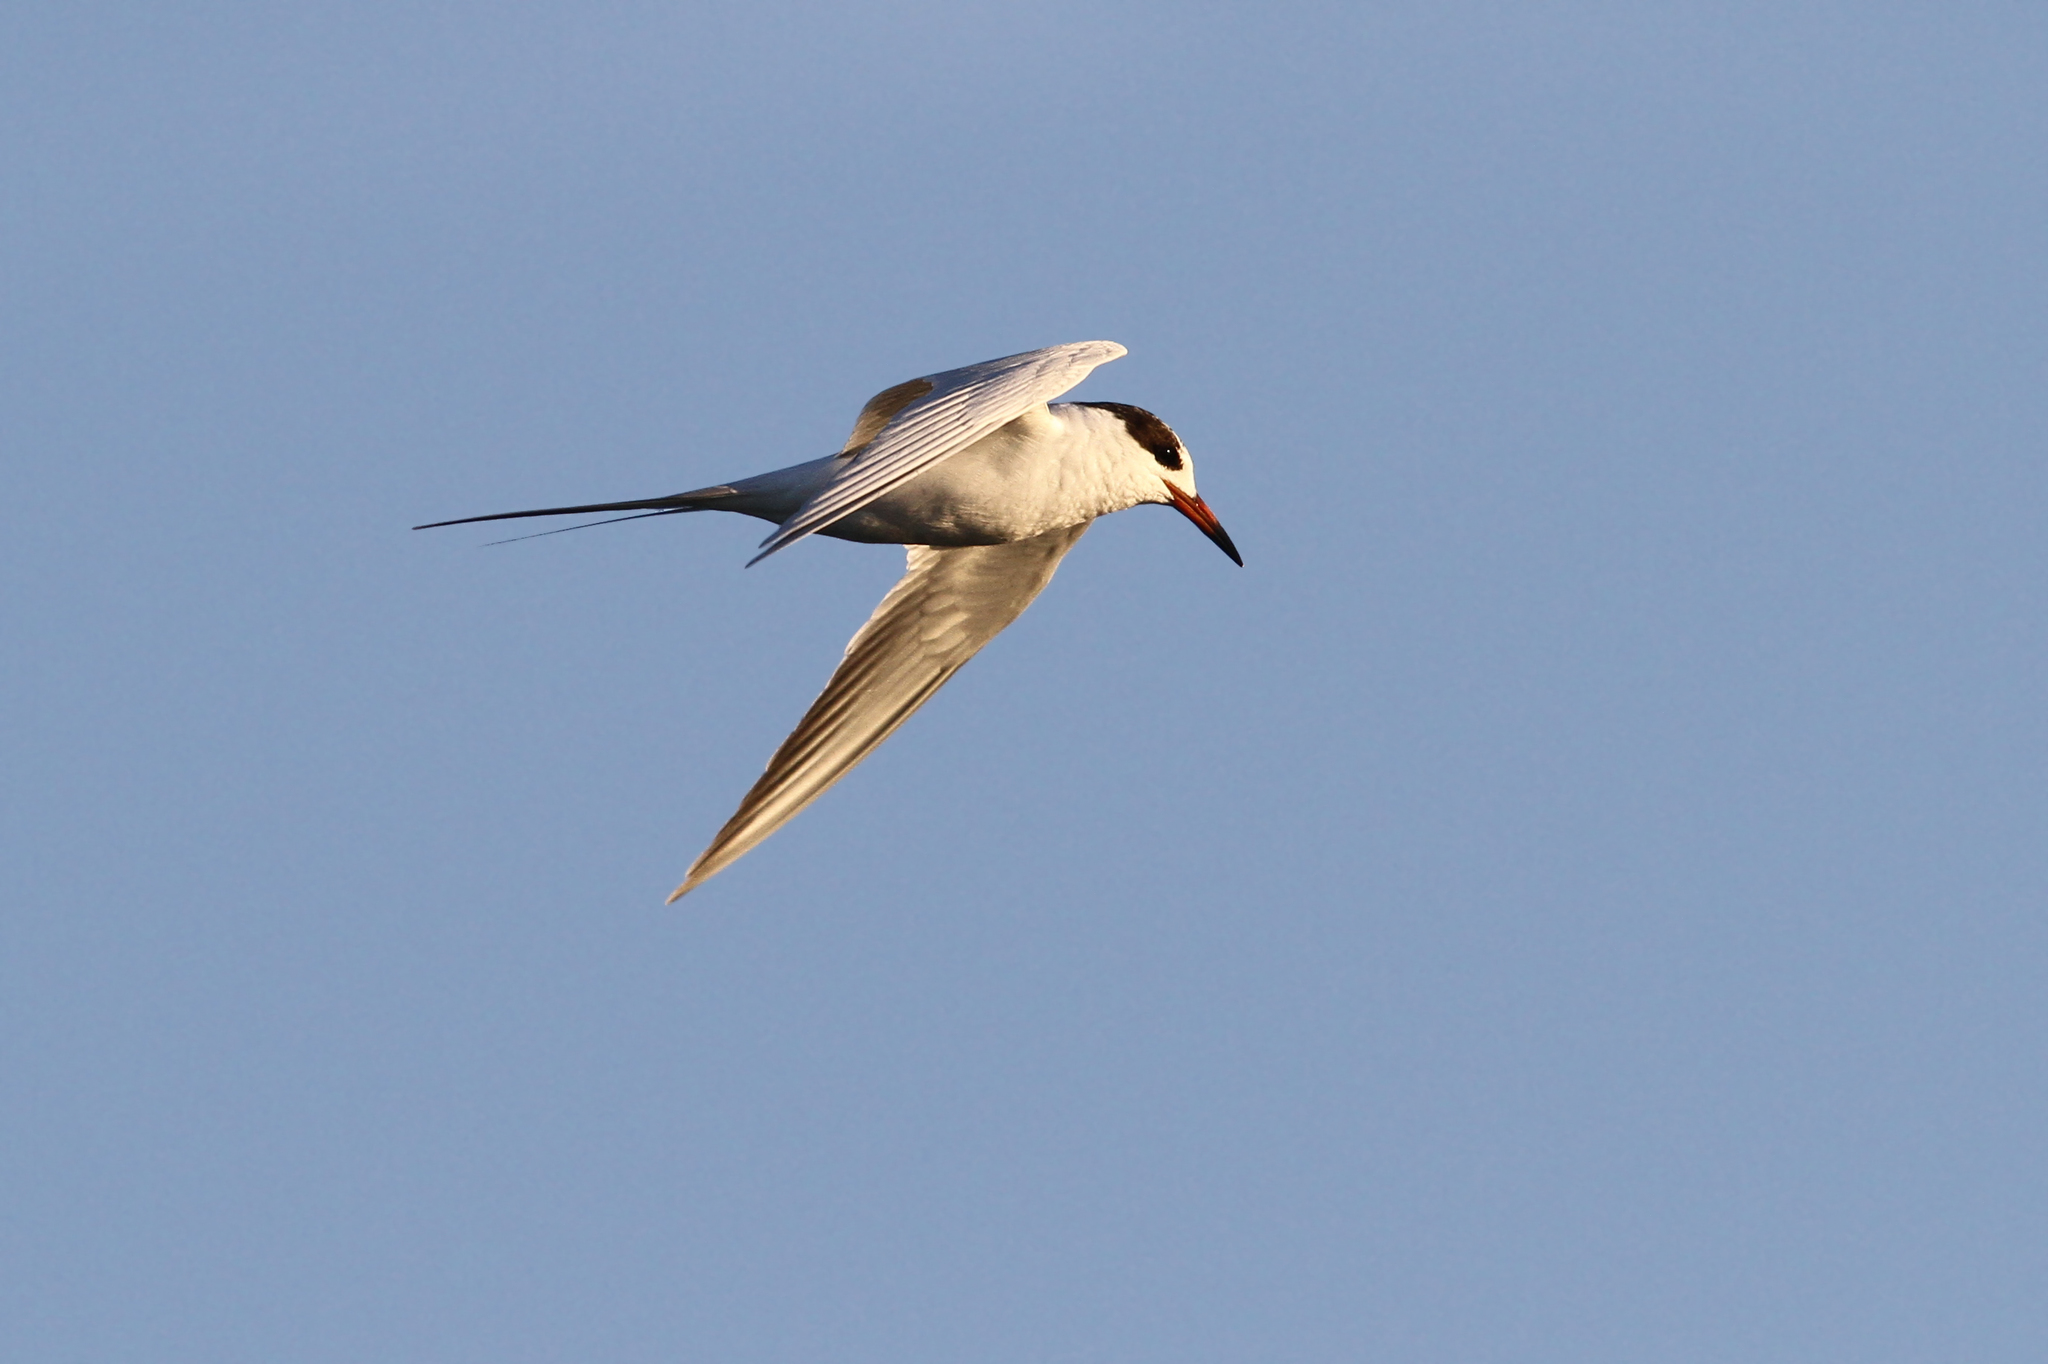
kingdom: Animalia
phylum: Chordata
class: Aves
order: Charadriiformes
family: Laridae
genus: Sterna
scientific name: Sterna forsteri
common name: Forster's tern
